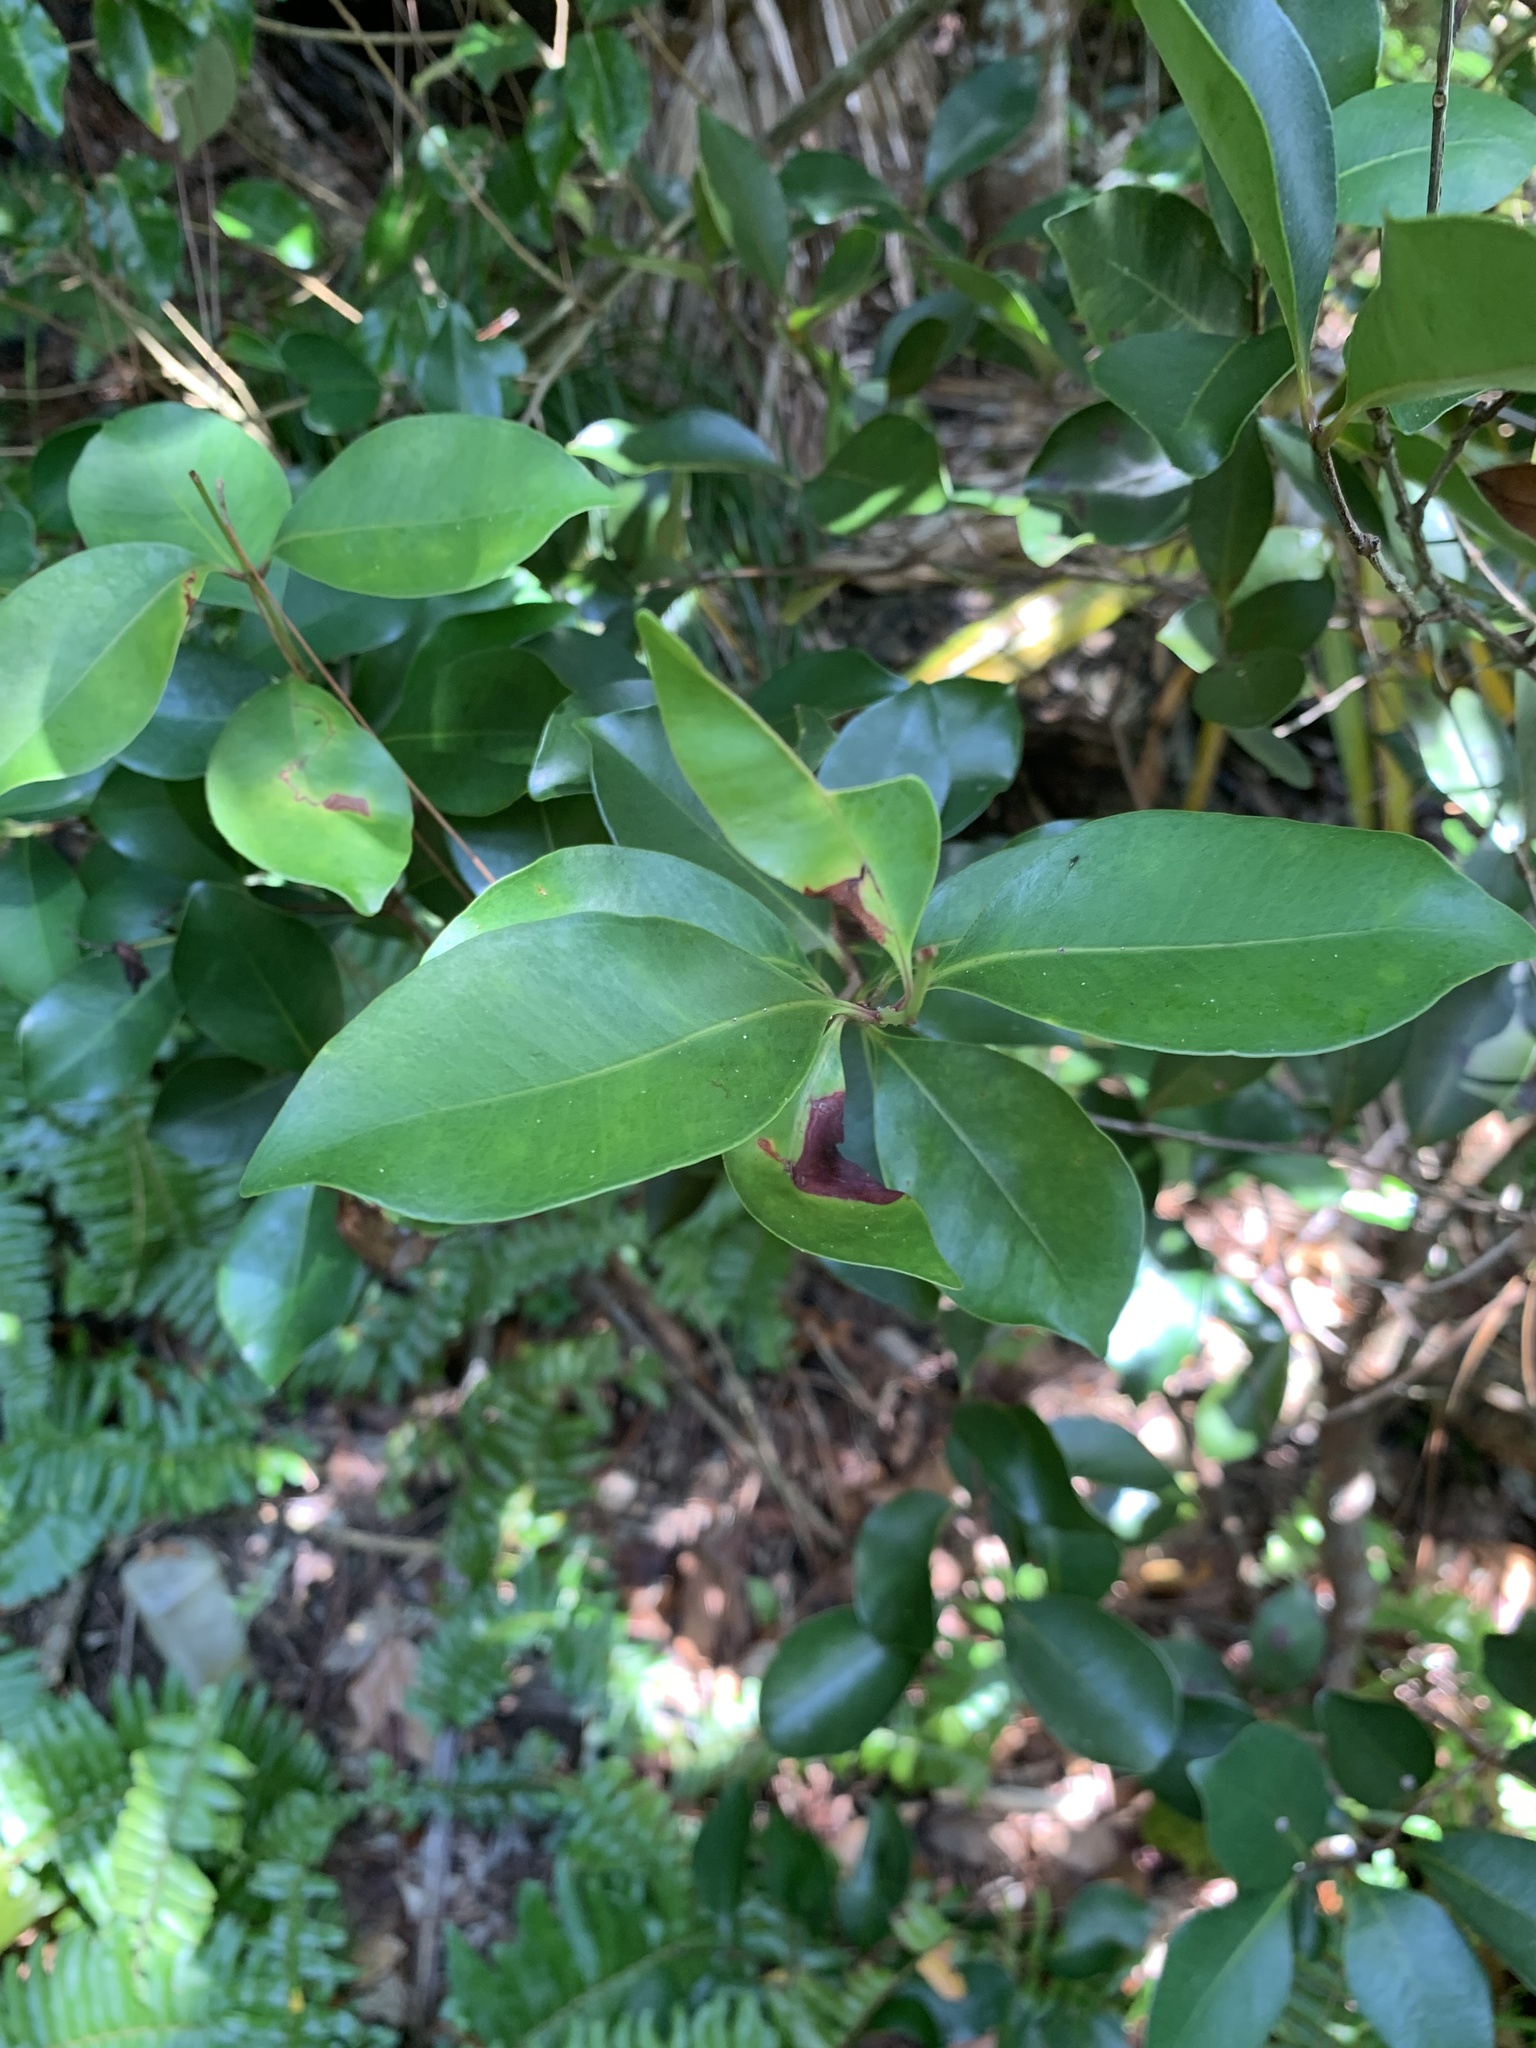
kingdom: Plantae
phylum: Tracheophyta
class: Magnoliopsida
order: Myrtales
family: Myrtaceae
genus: Syzygium
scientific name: Syzygium cleyerifolium
